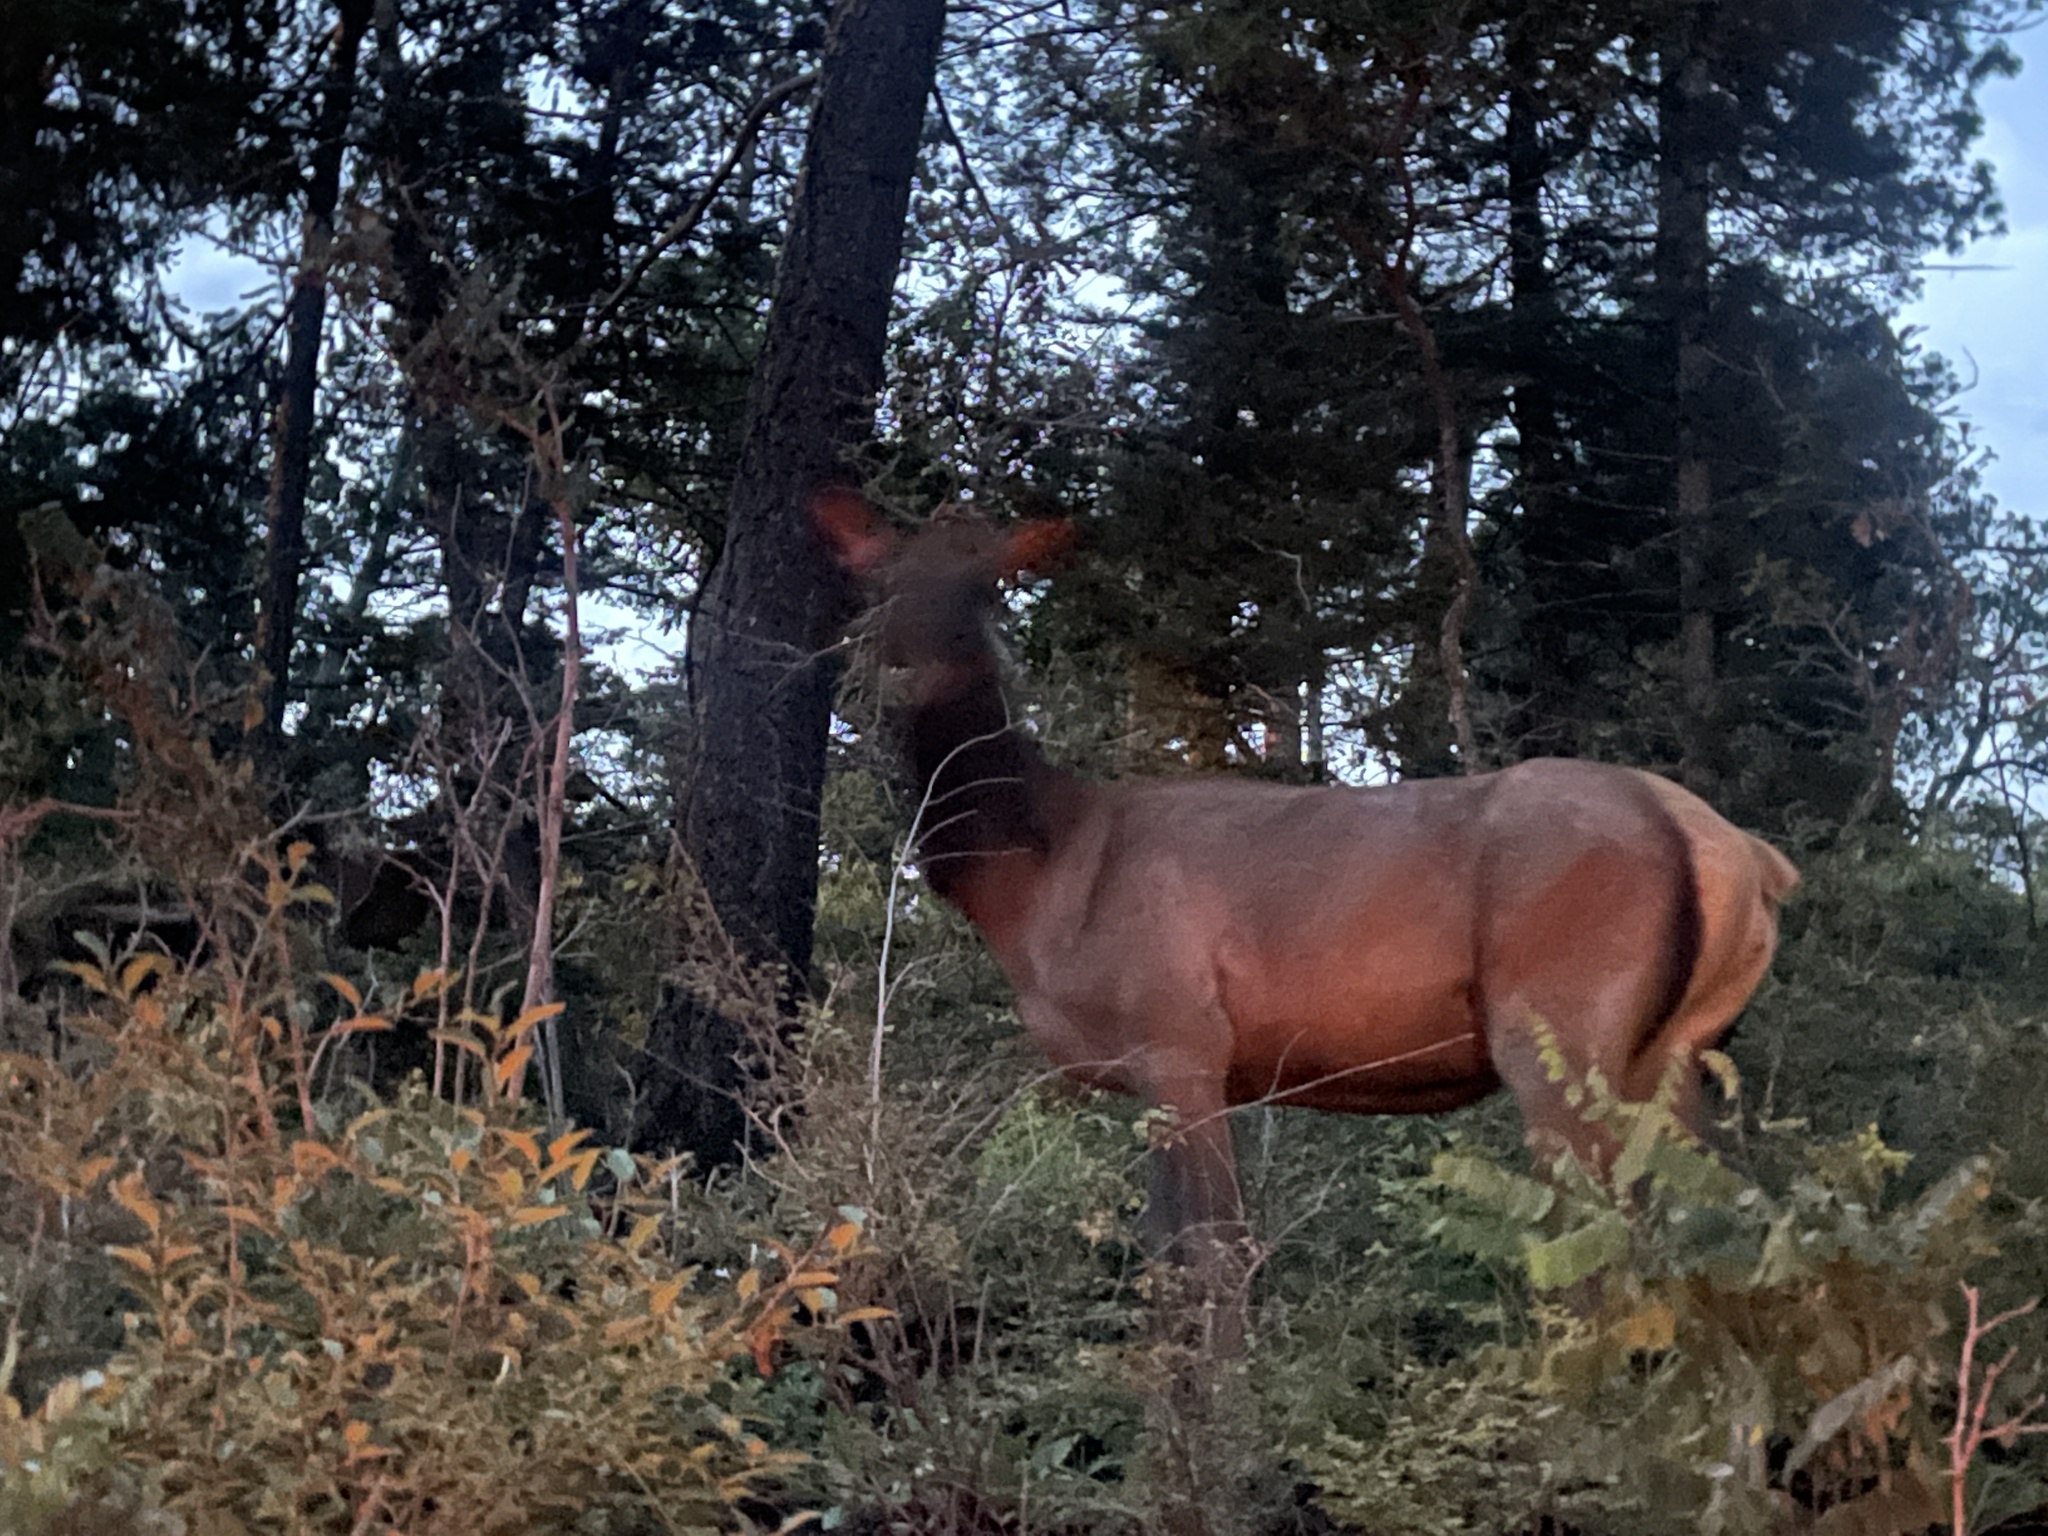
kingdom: Animalia
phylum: Chordata
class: Mammalia
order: Artiodactyla
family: Cervidae
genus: Cervus
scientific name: Cervus elaphus
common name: Red deer
